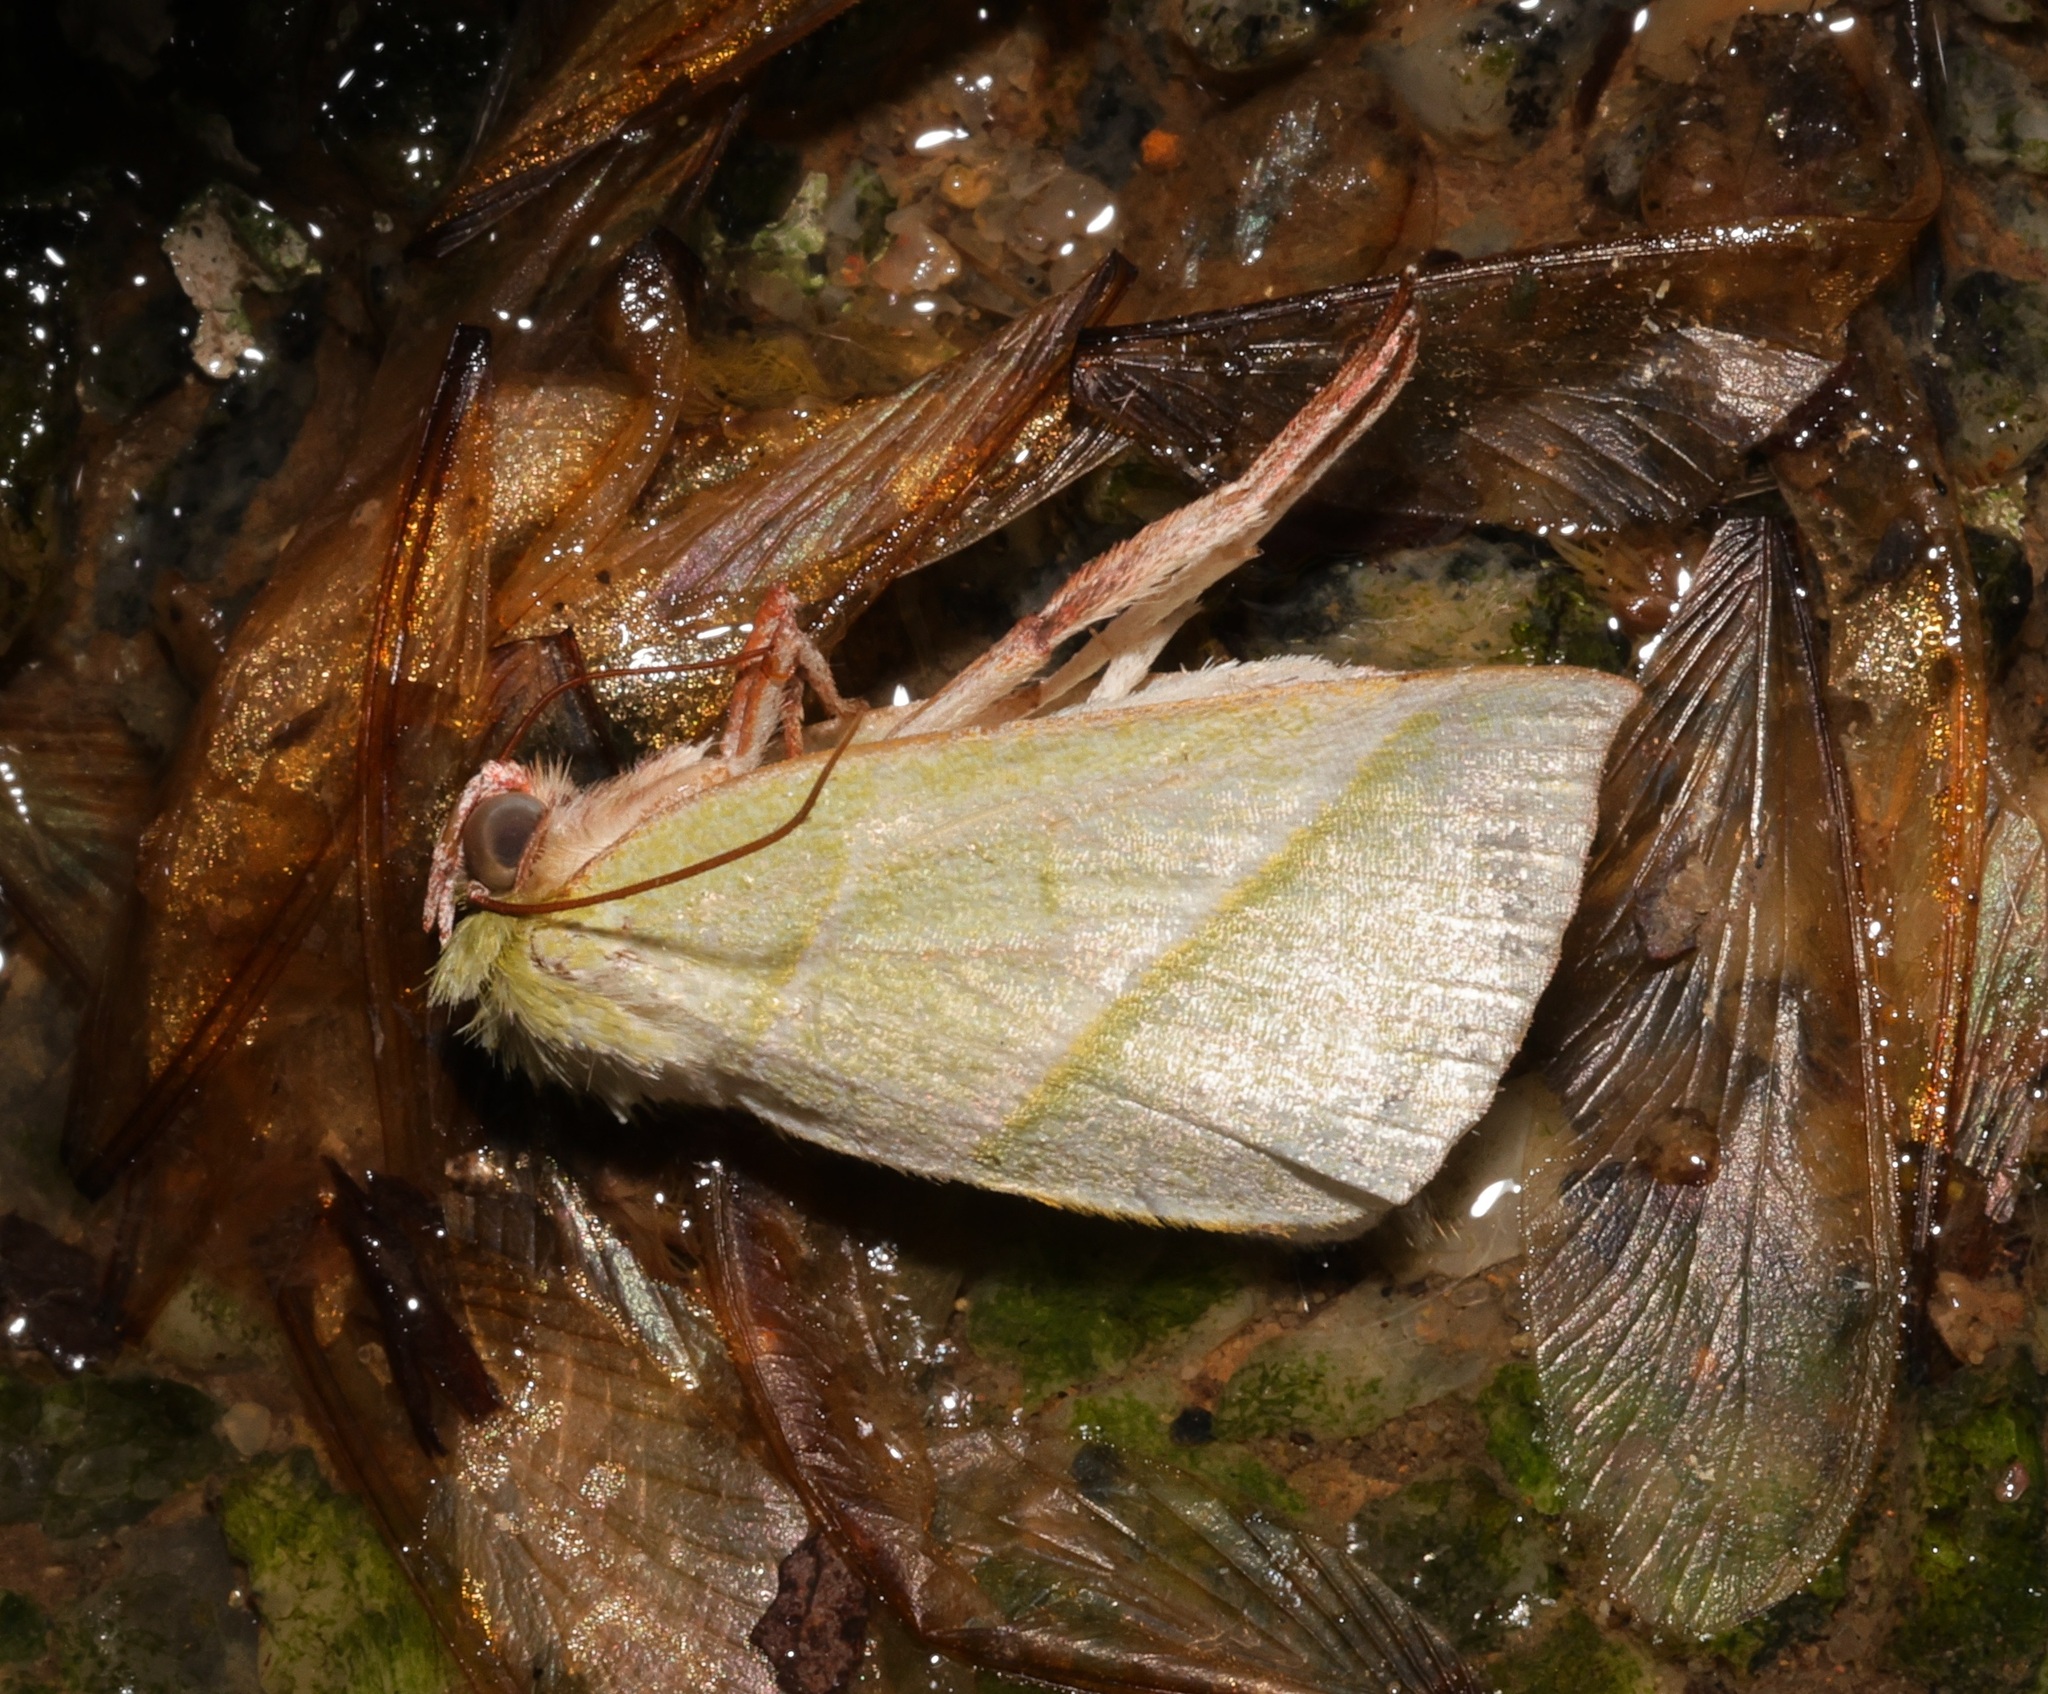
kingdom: Animalia
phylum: Arthropoda
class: Insecta
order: Lepidoptera
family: Nolidae
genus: Hylophilodes
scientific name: Hylophilodes tsukusensis
